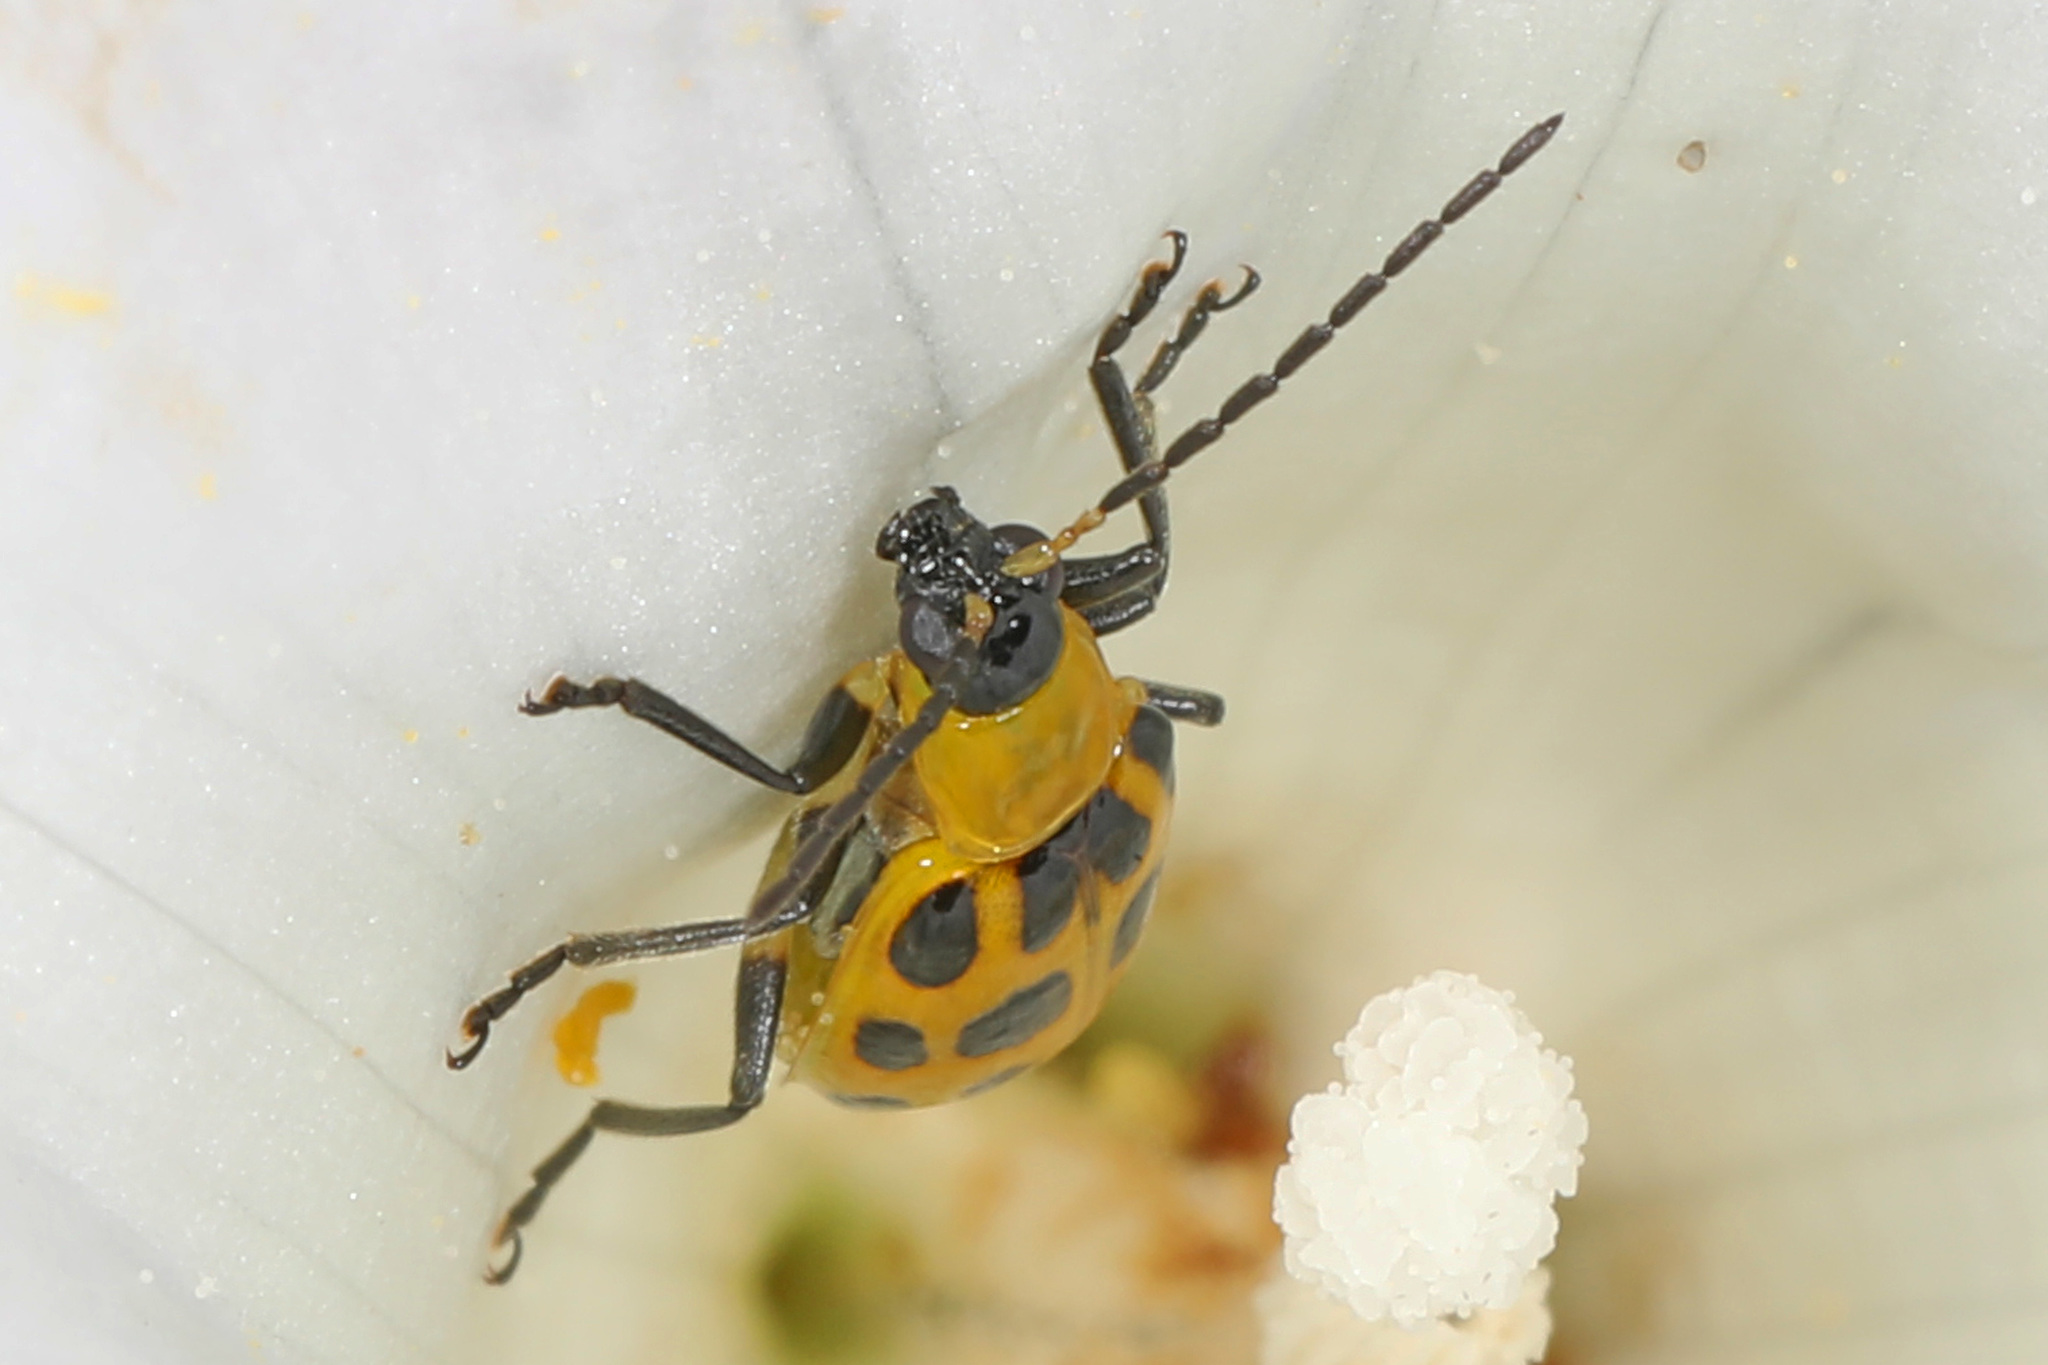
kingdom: Animalia
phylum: Arthropoda
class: Insecta
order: Coleoptera
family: Chrysomelidae
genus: Diabrotica
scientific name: Diabrotica undecimpunctata
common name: Spotted cucumber beetle
